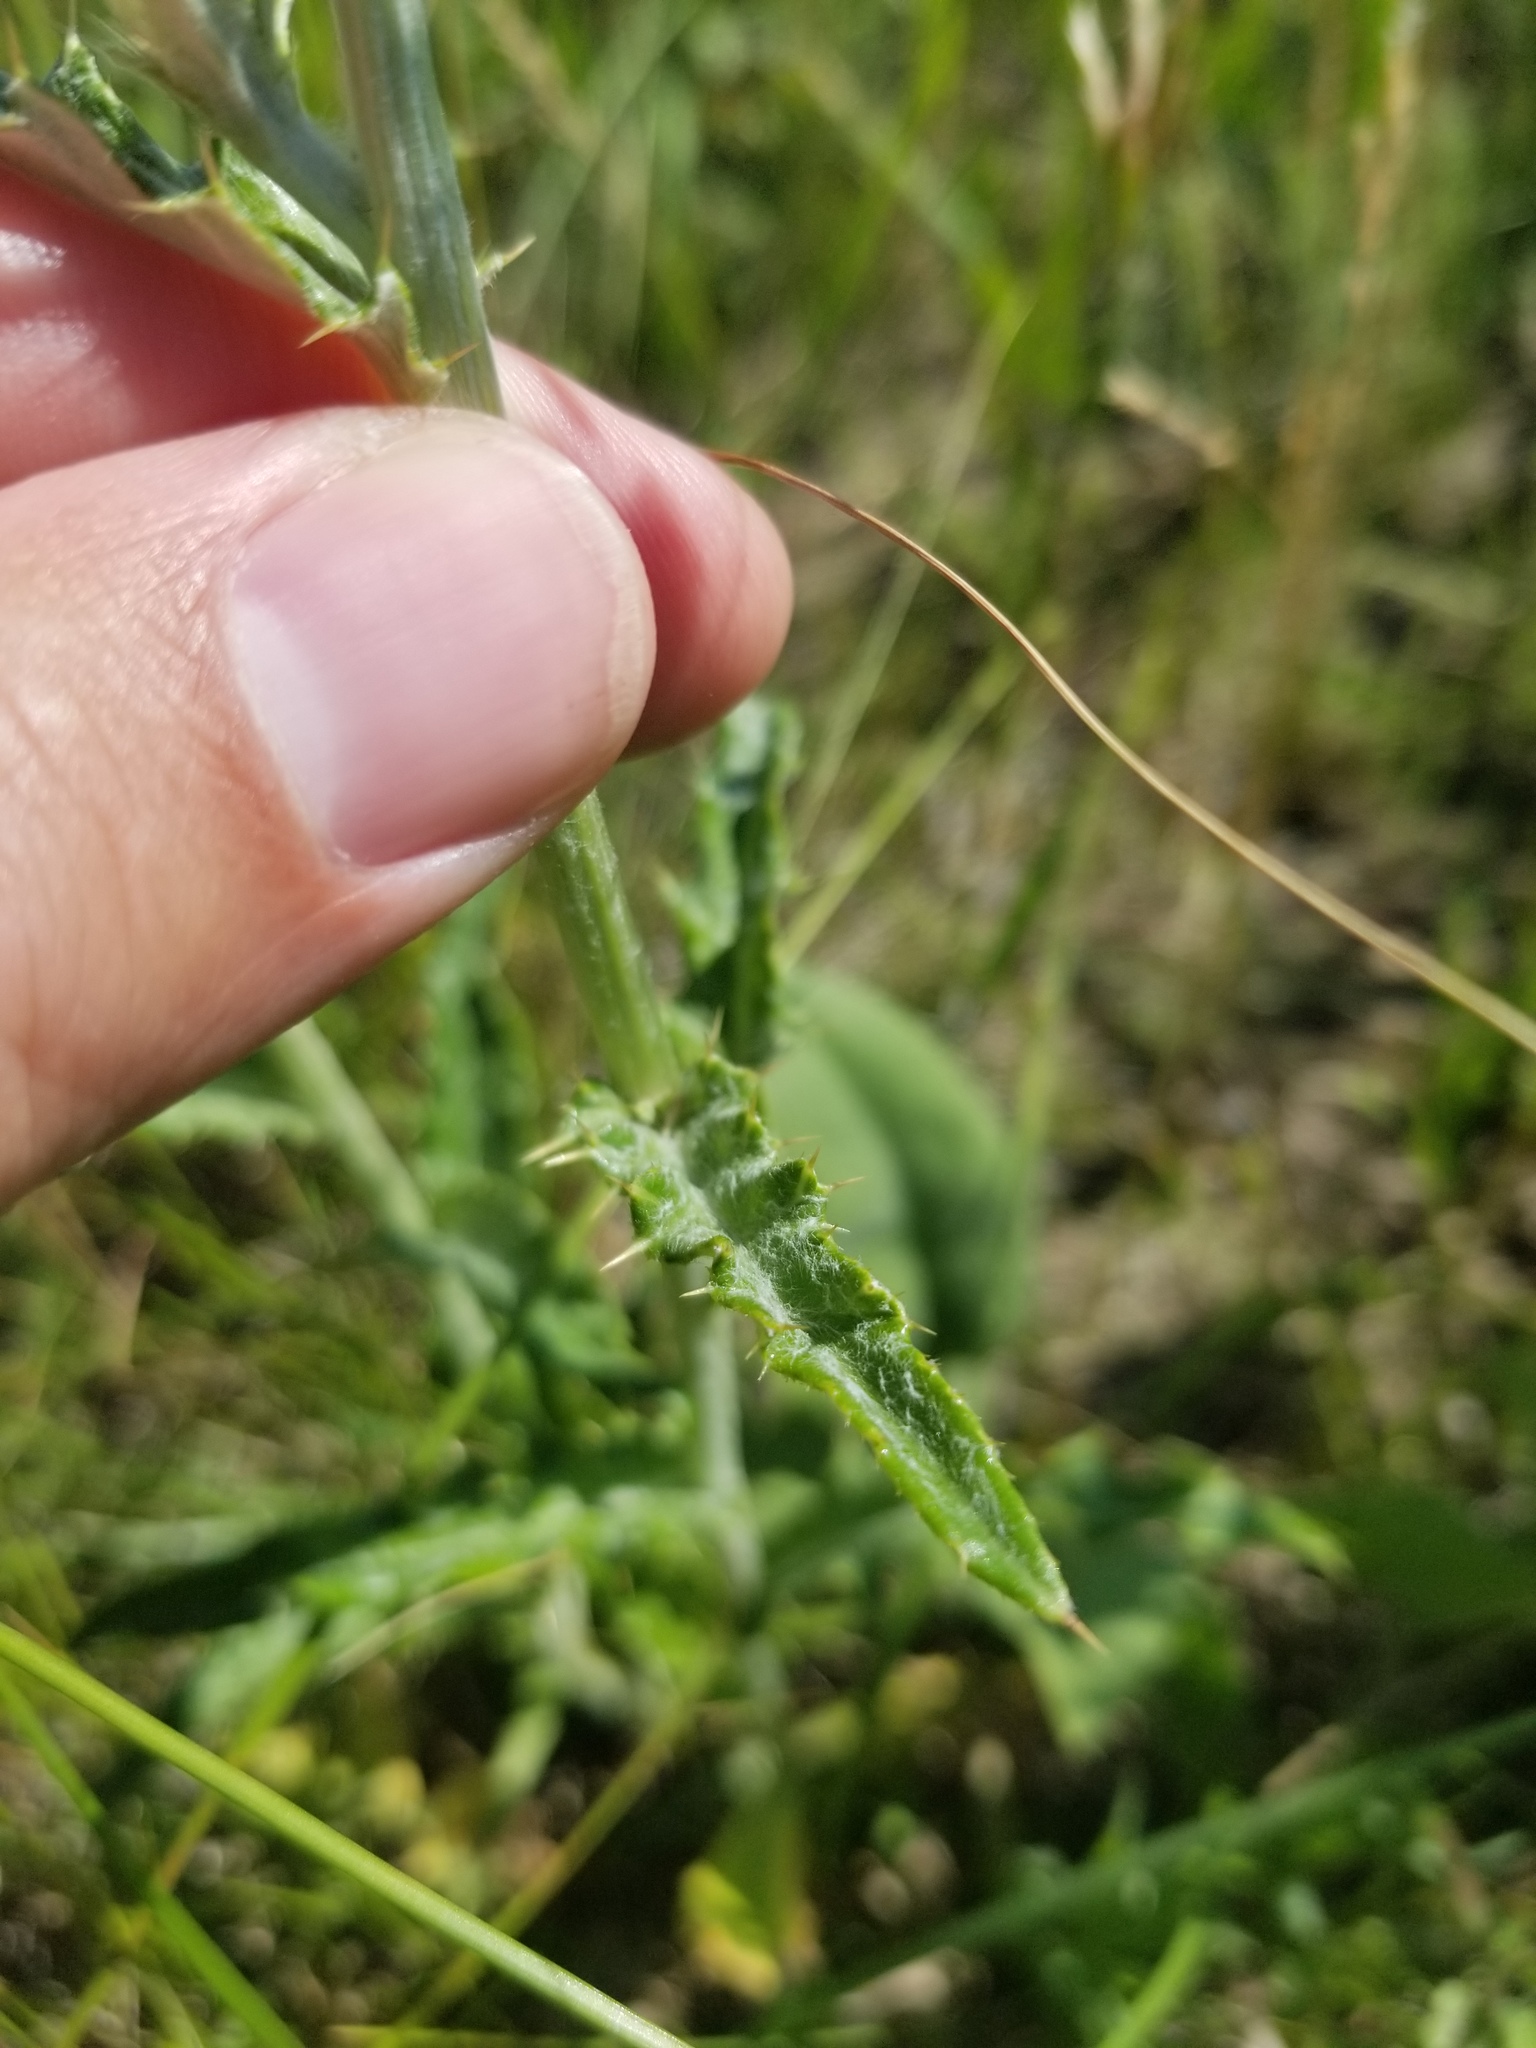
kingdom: Plantae
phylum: Tracheophyta
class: Magnoliopsida
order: Asterales
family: Asteraceae
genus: Cirsium
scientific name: Cirsium flodmanii
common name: Flodman's thistle
